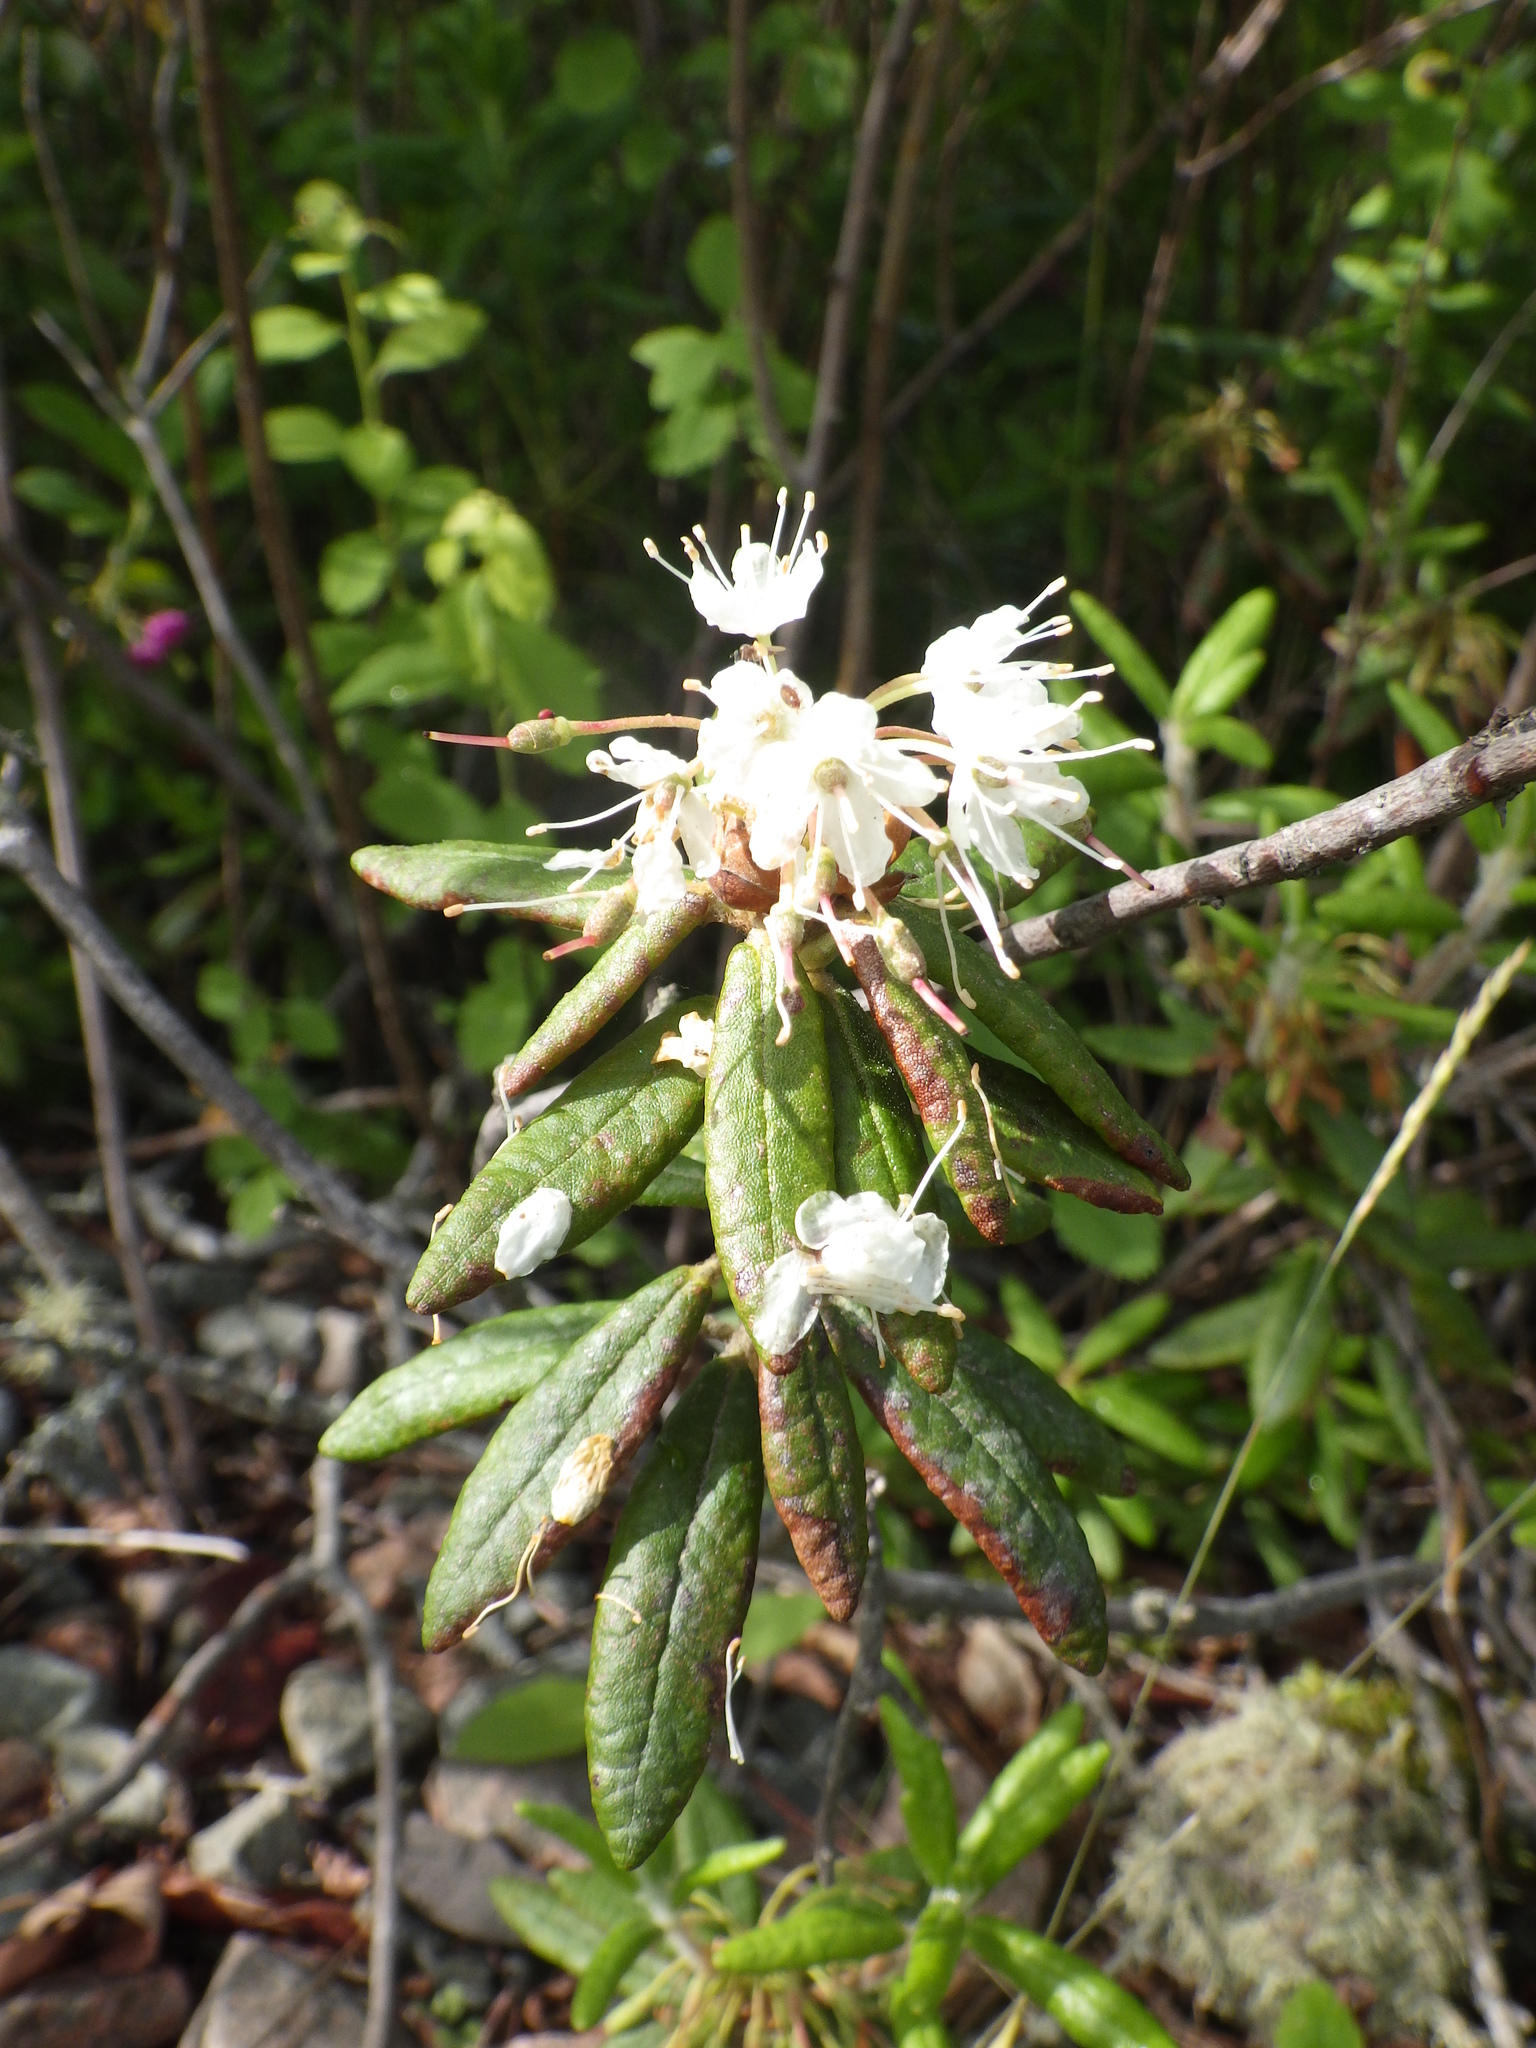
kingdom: Plantae
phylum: Tracheophyta
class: Magnoliopsida
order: Ericales
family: Ericaceae
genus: Rhododendron
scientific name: Rhododendron groenlandicum
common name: Bog labrador tea
